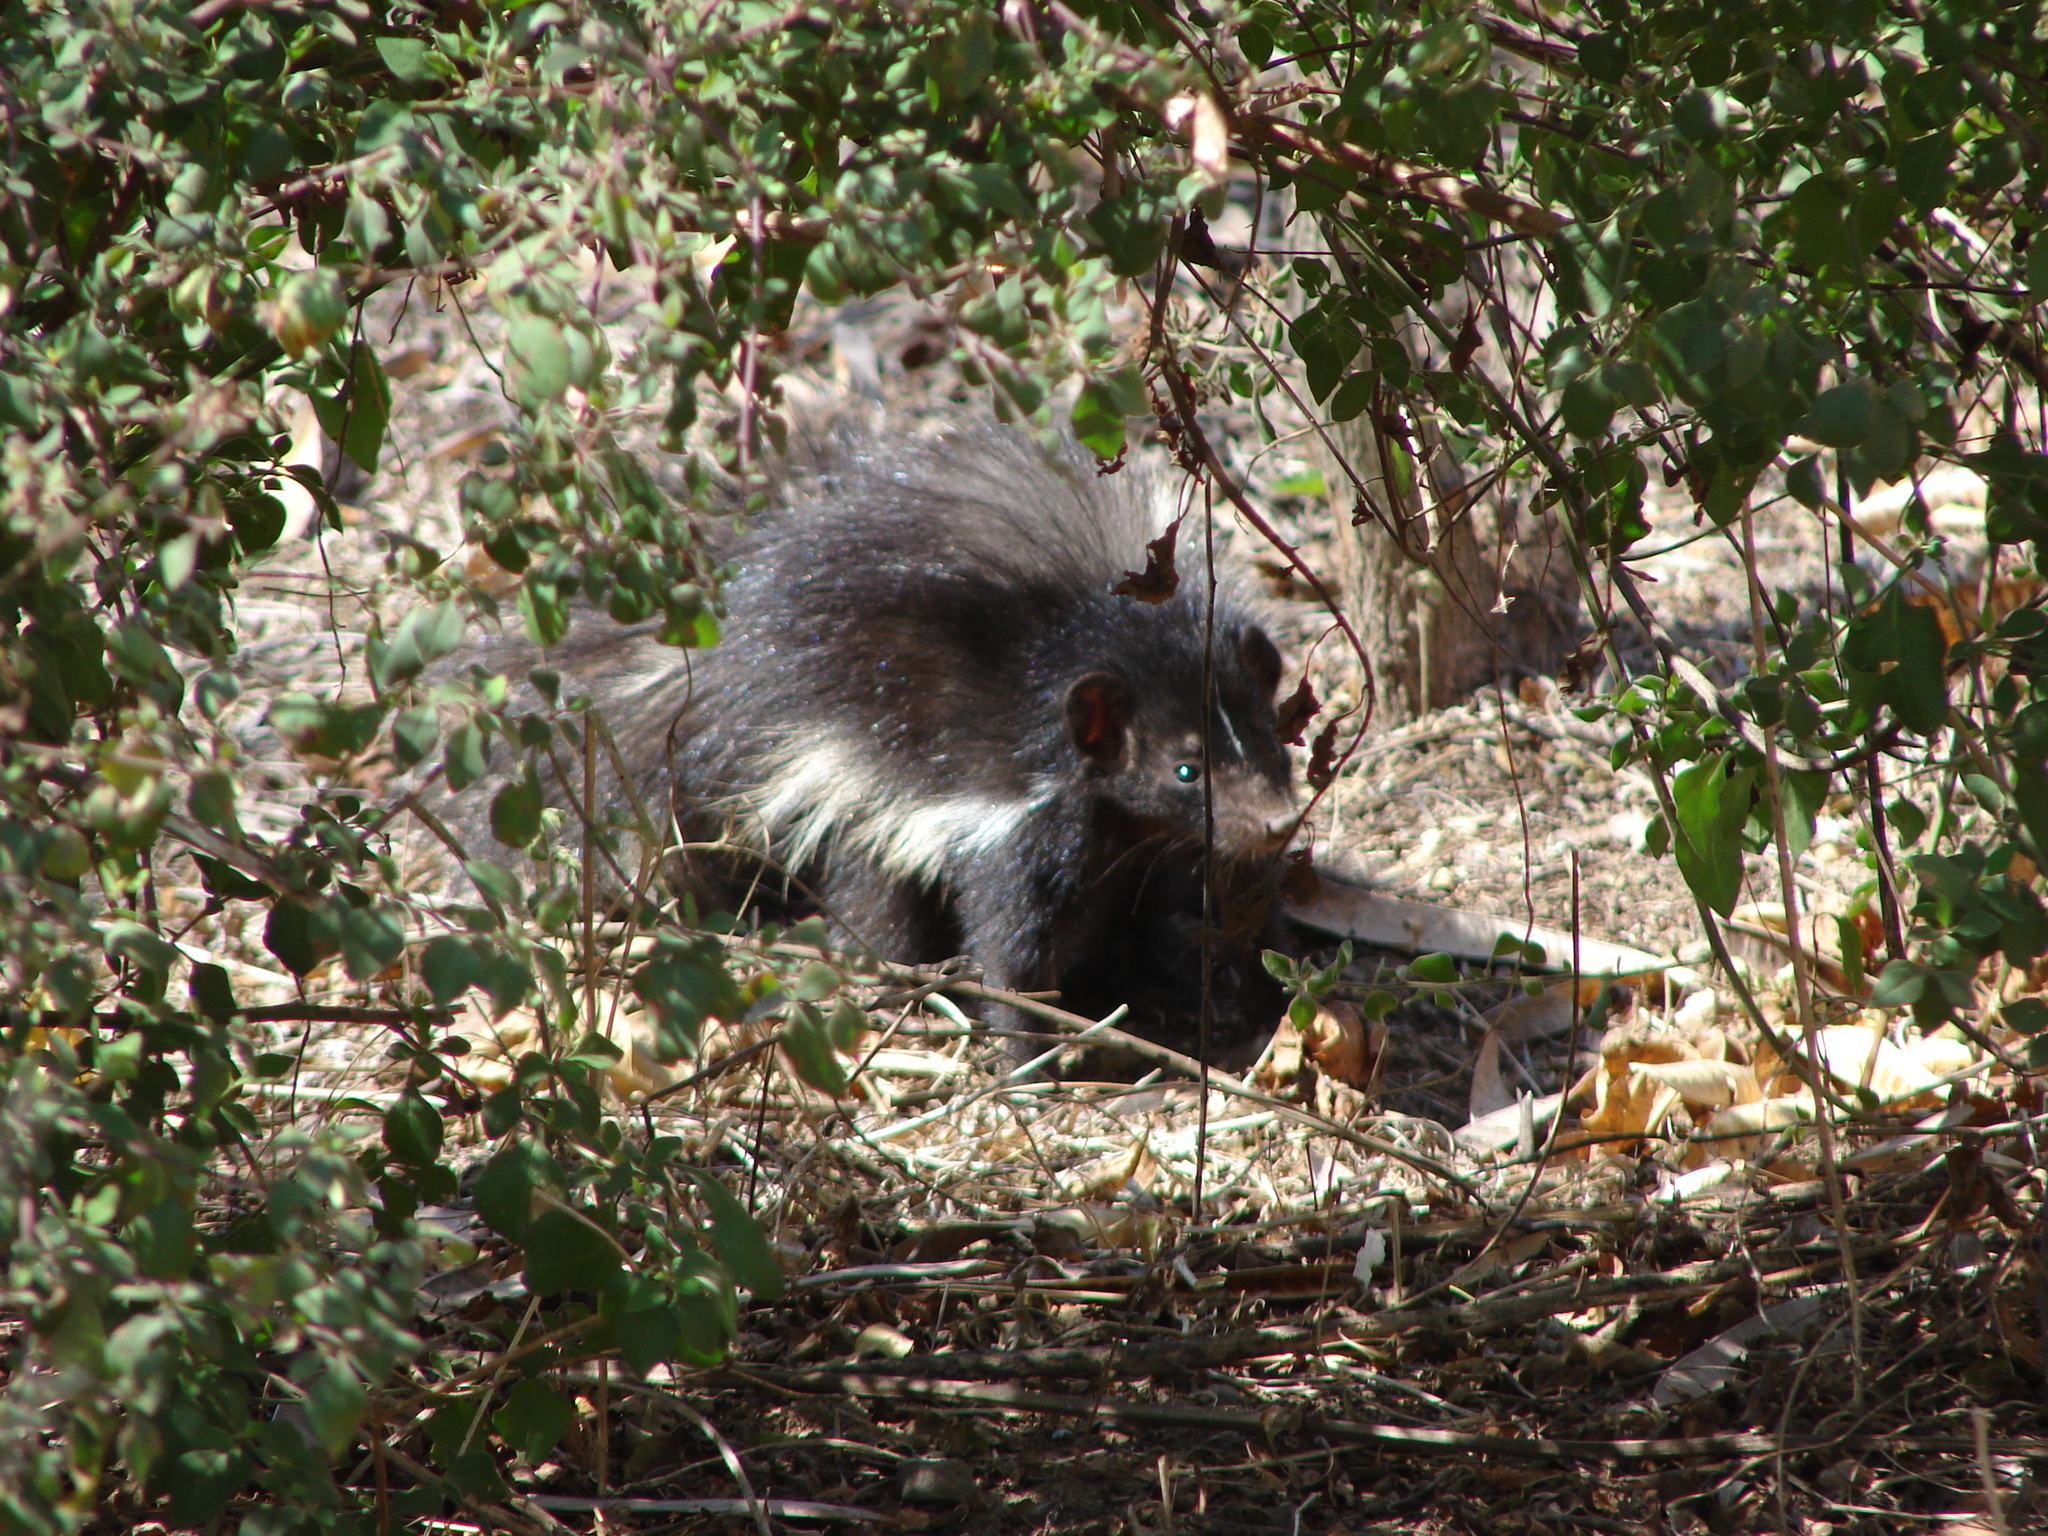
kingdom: Animalia
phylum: Chordata
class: Mammalia
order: Carnivora
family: Mephitidae
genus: Mephitis
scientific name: Mephitis macroura
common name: Hooded skunk
